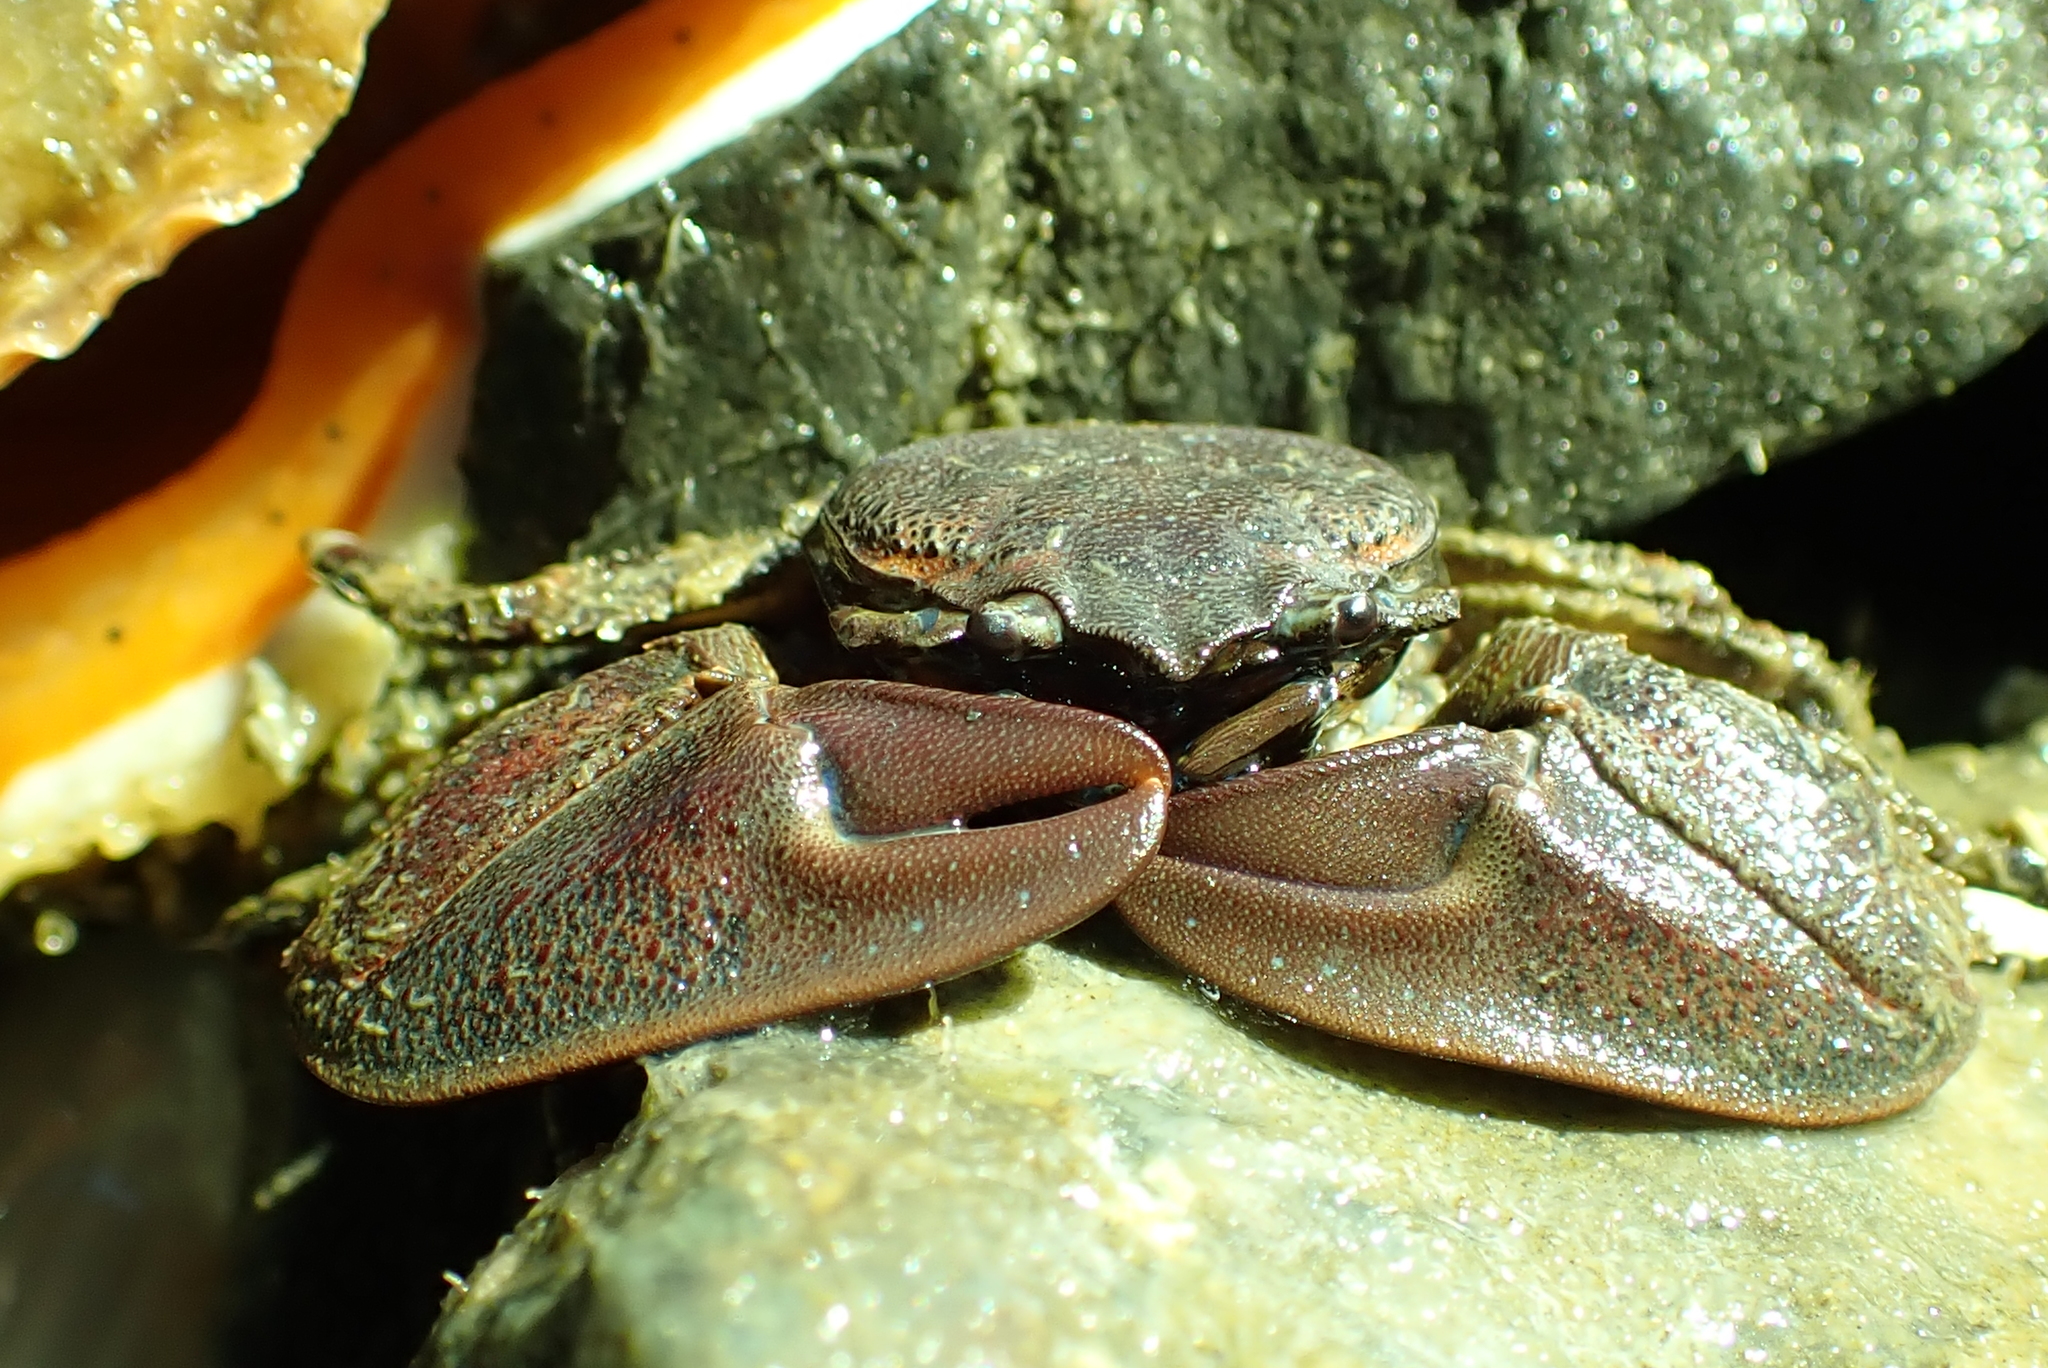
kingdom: Animalia
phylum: Arthropoda
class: Malacostraca
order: Decapoda
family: Porcellanidae
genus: Petrolisthes
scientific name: Petrolisthes eriomerus
